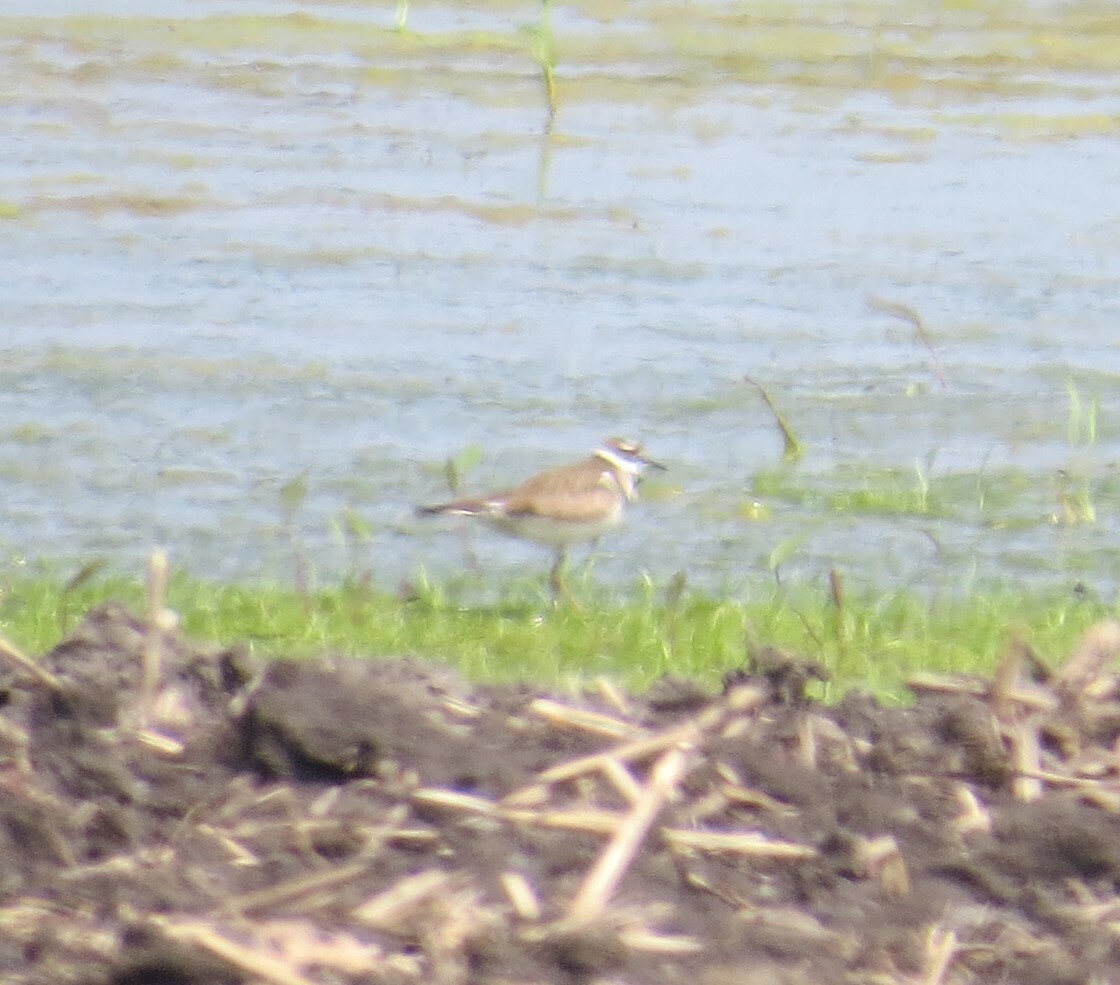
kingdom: Animalia
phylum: Chordata
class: Aves
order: Charadriiformes
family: Charadriidae
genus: Charadrius
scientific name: Charadrius vociferus
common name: Killdeer
